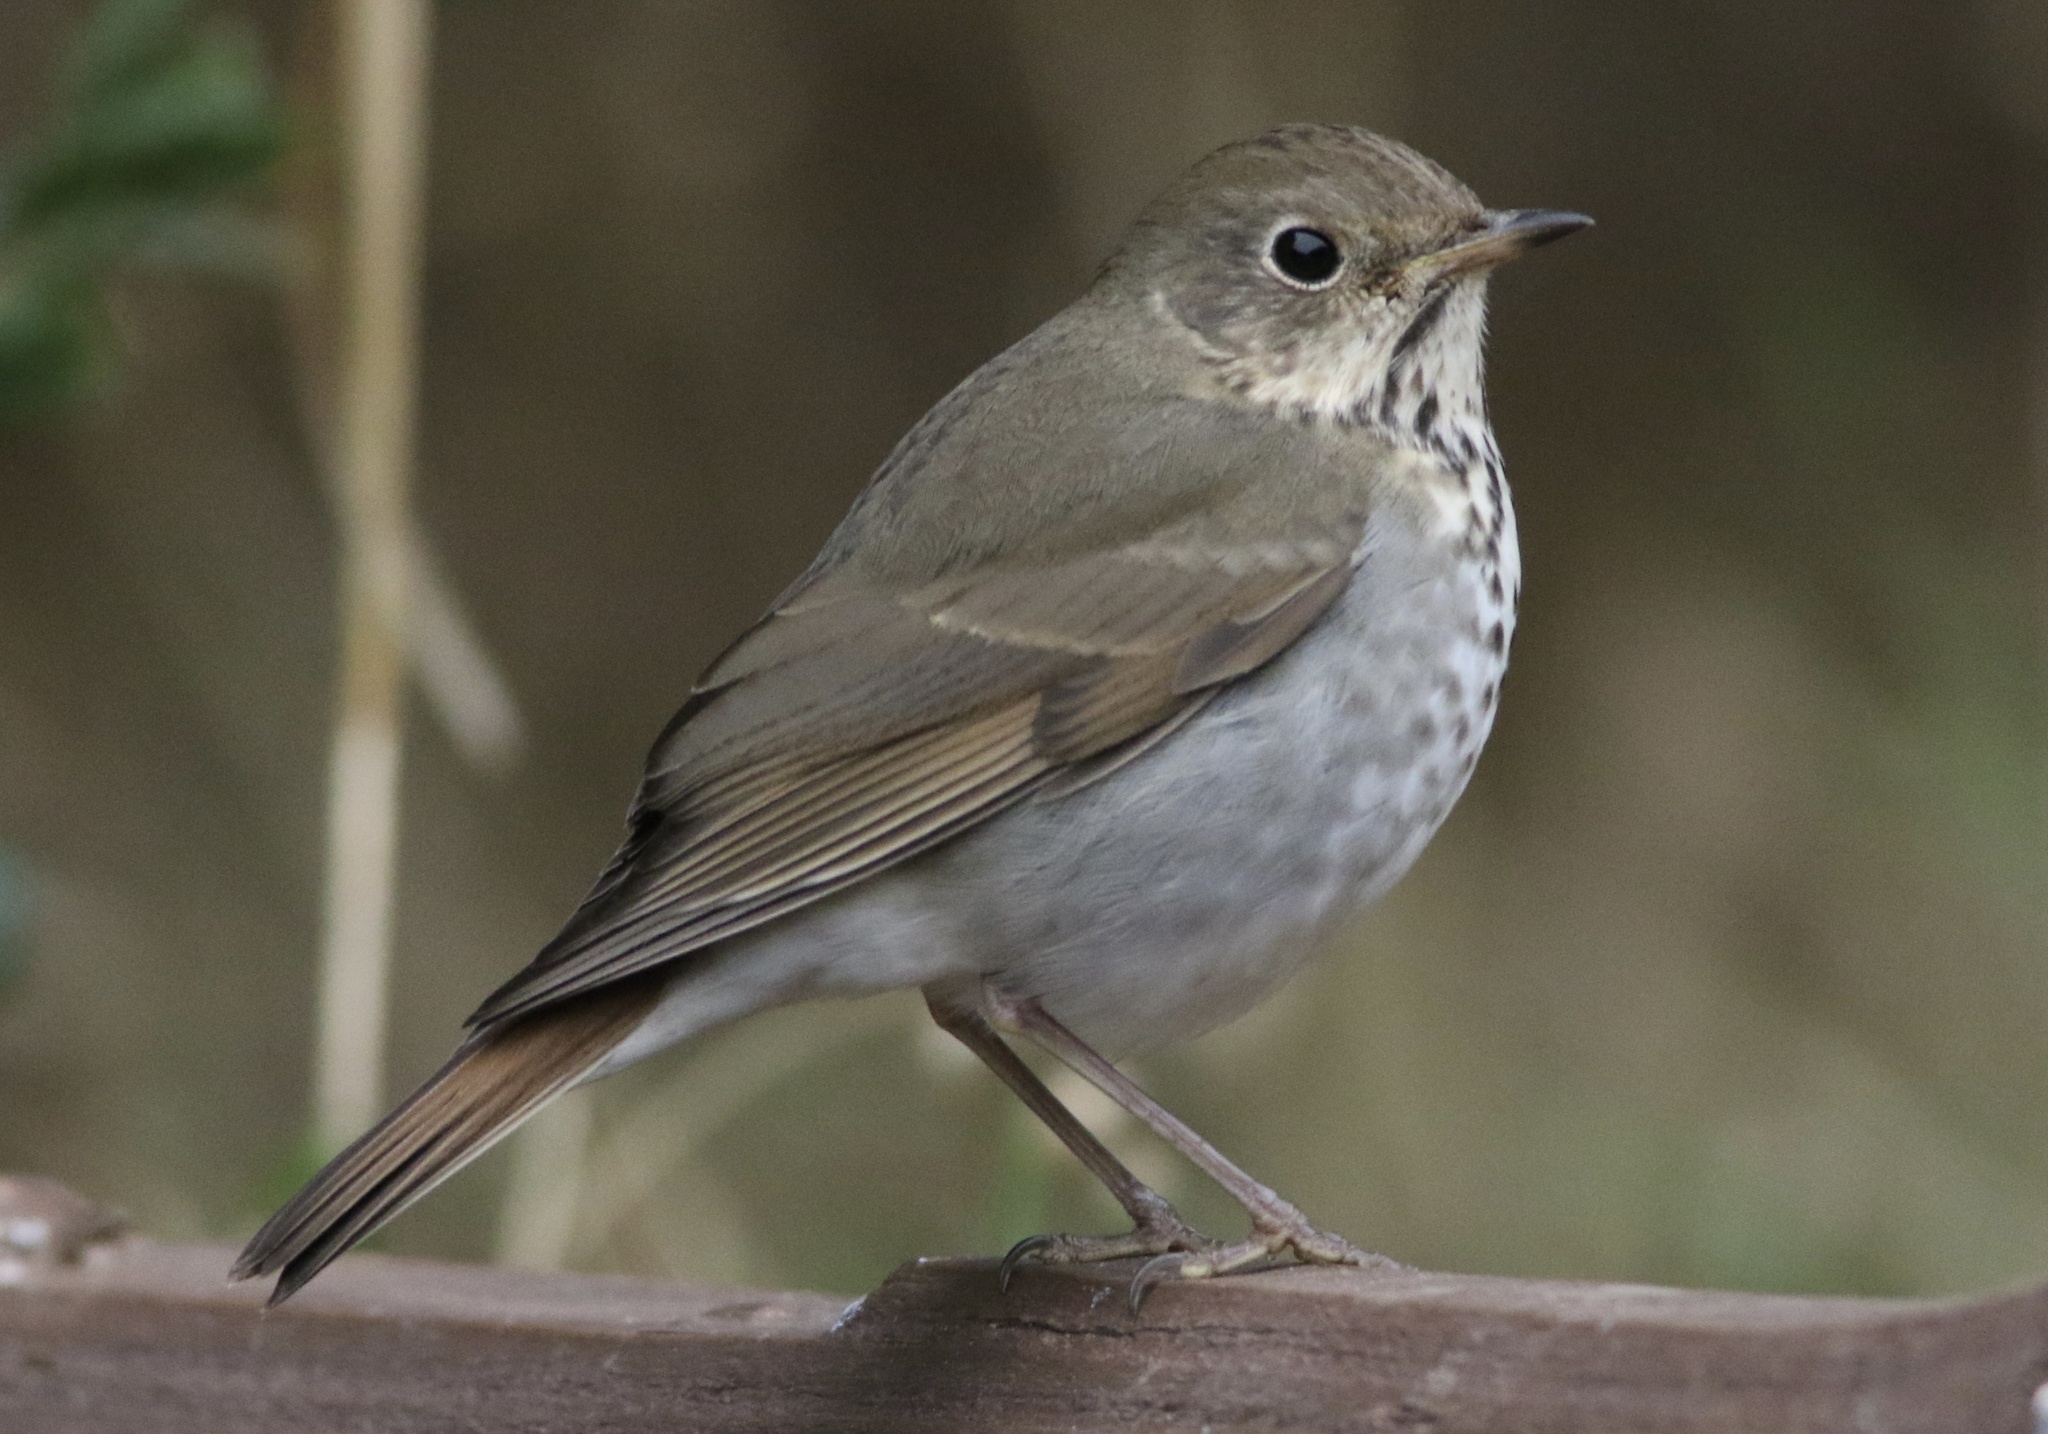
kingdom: Animalia
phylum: Chordata
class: Aves
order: Passeriformes
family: Turdidae
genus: Catharus
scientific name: Catharus guttatus
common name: Hermit thrush
